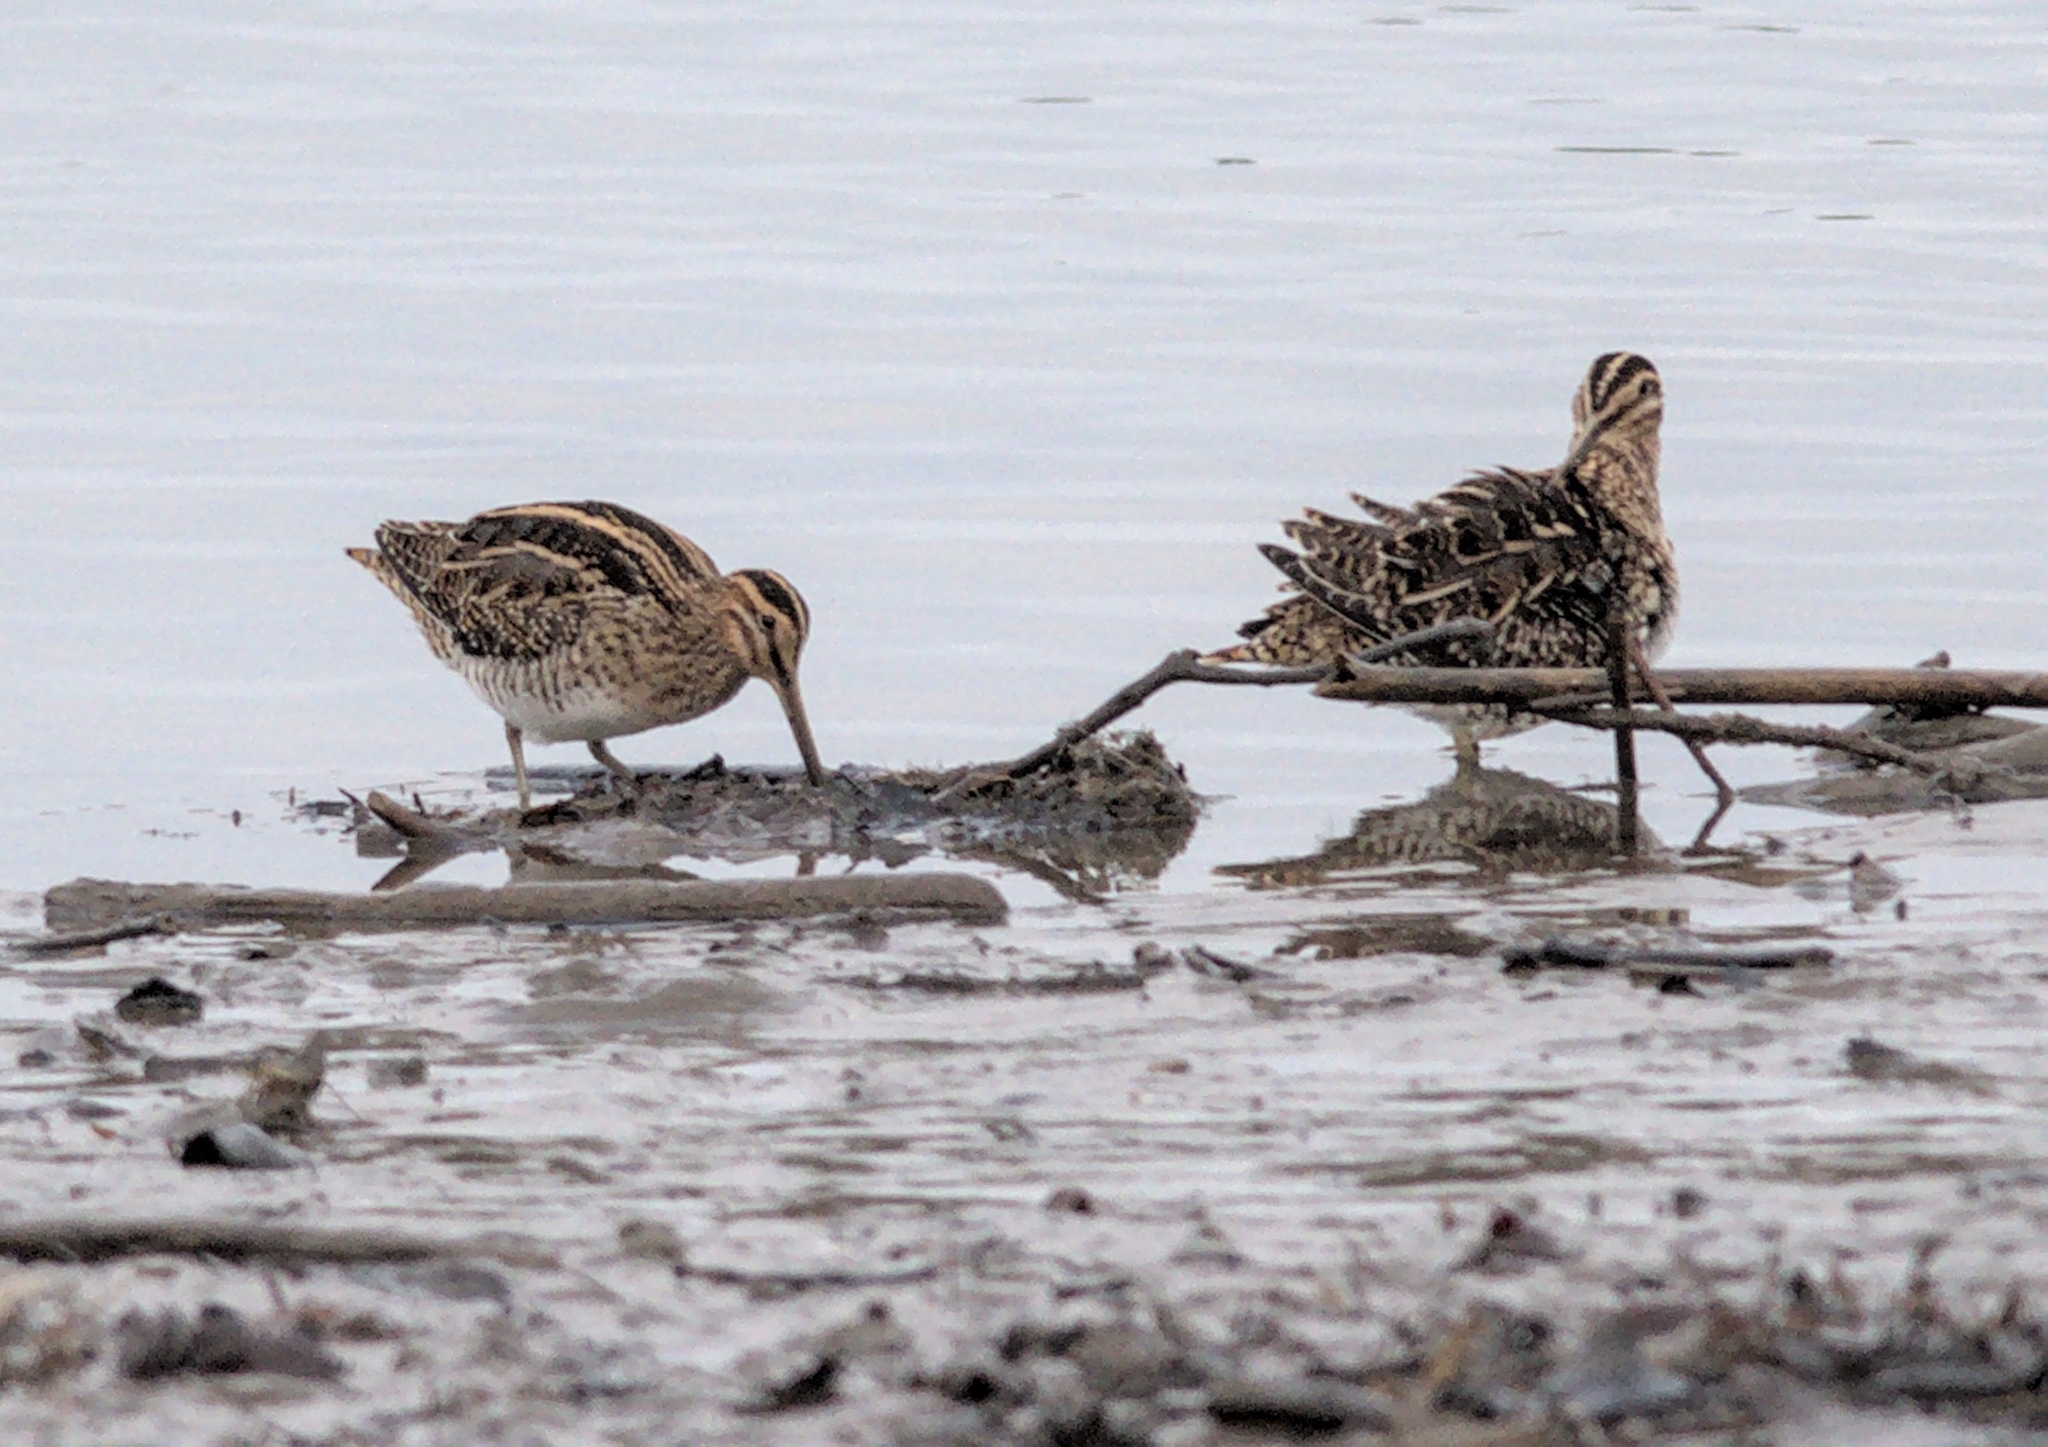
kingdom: Animalia
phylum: Chordata
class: Aves
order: Charadriiformes
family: Scolopacidae
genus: Gallinago
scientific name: Gallinago gallinago
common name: Common snipe
